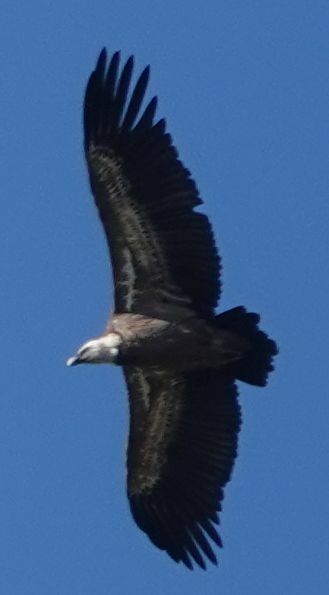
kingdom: Animalia
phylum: Chordata
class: Aves
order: Accipitriformes
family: Accipitridae
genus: Gyps
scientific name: Gyps fulvus
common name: Griffon vulture
